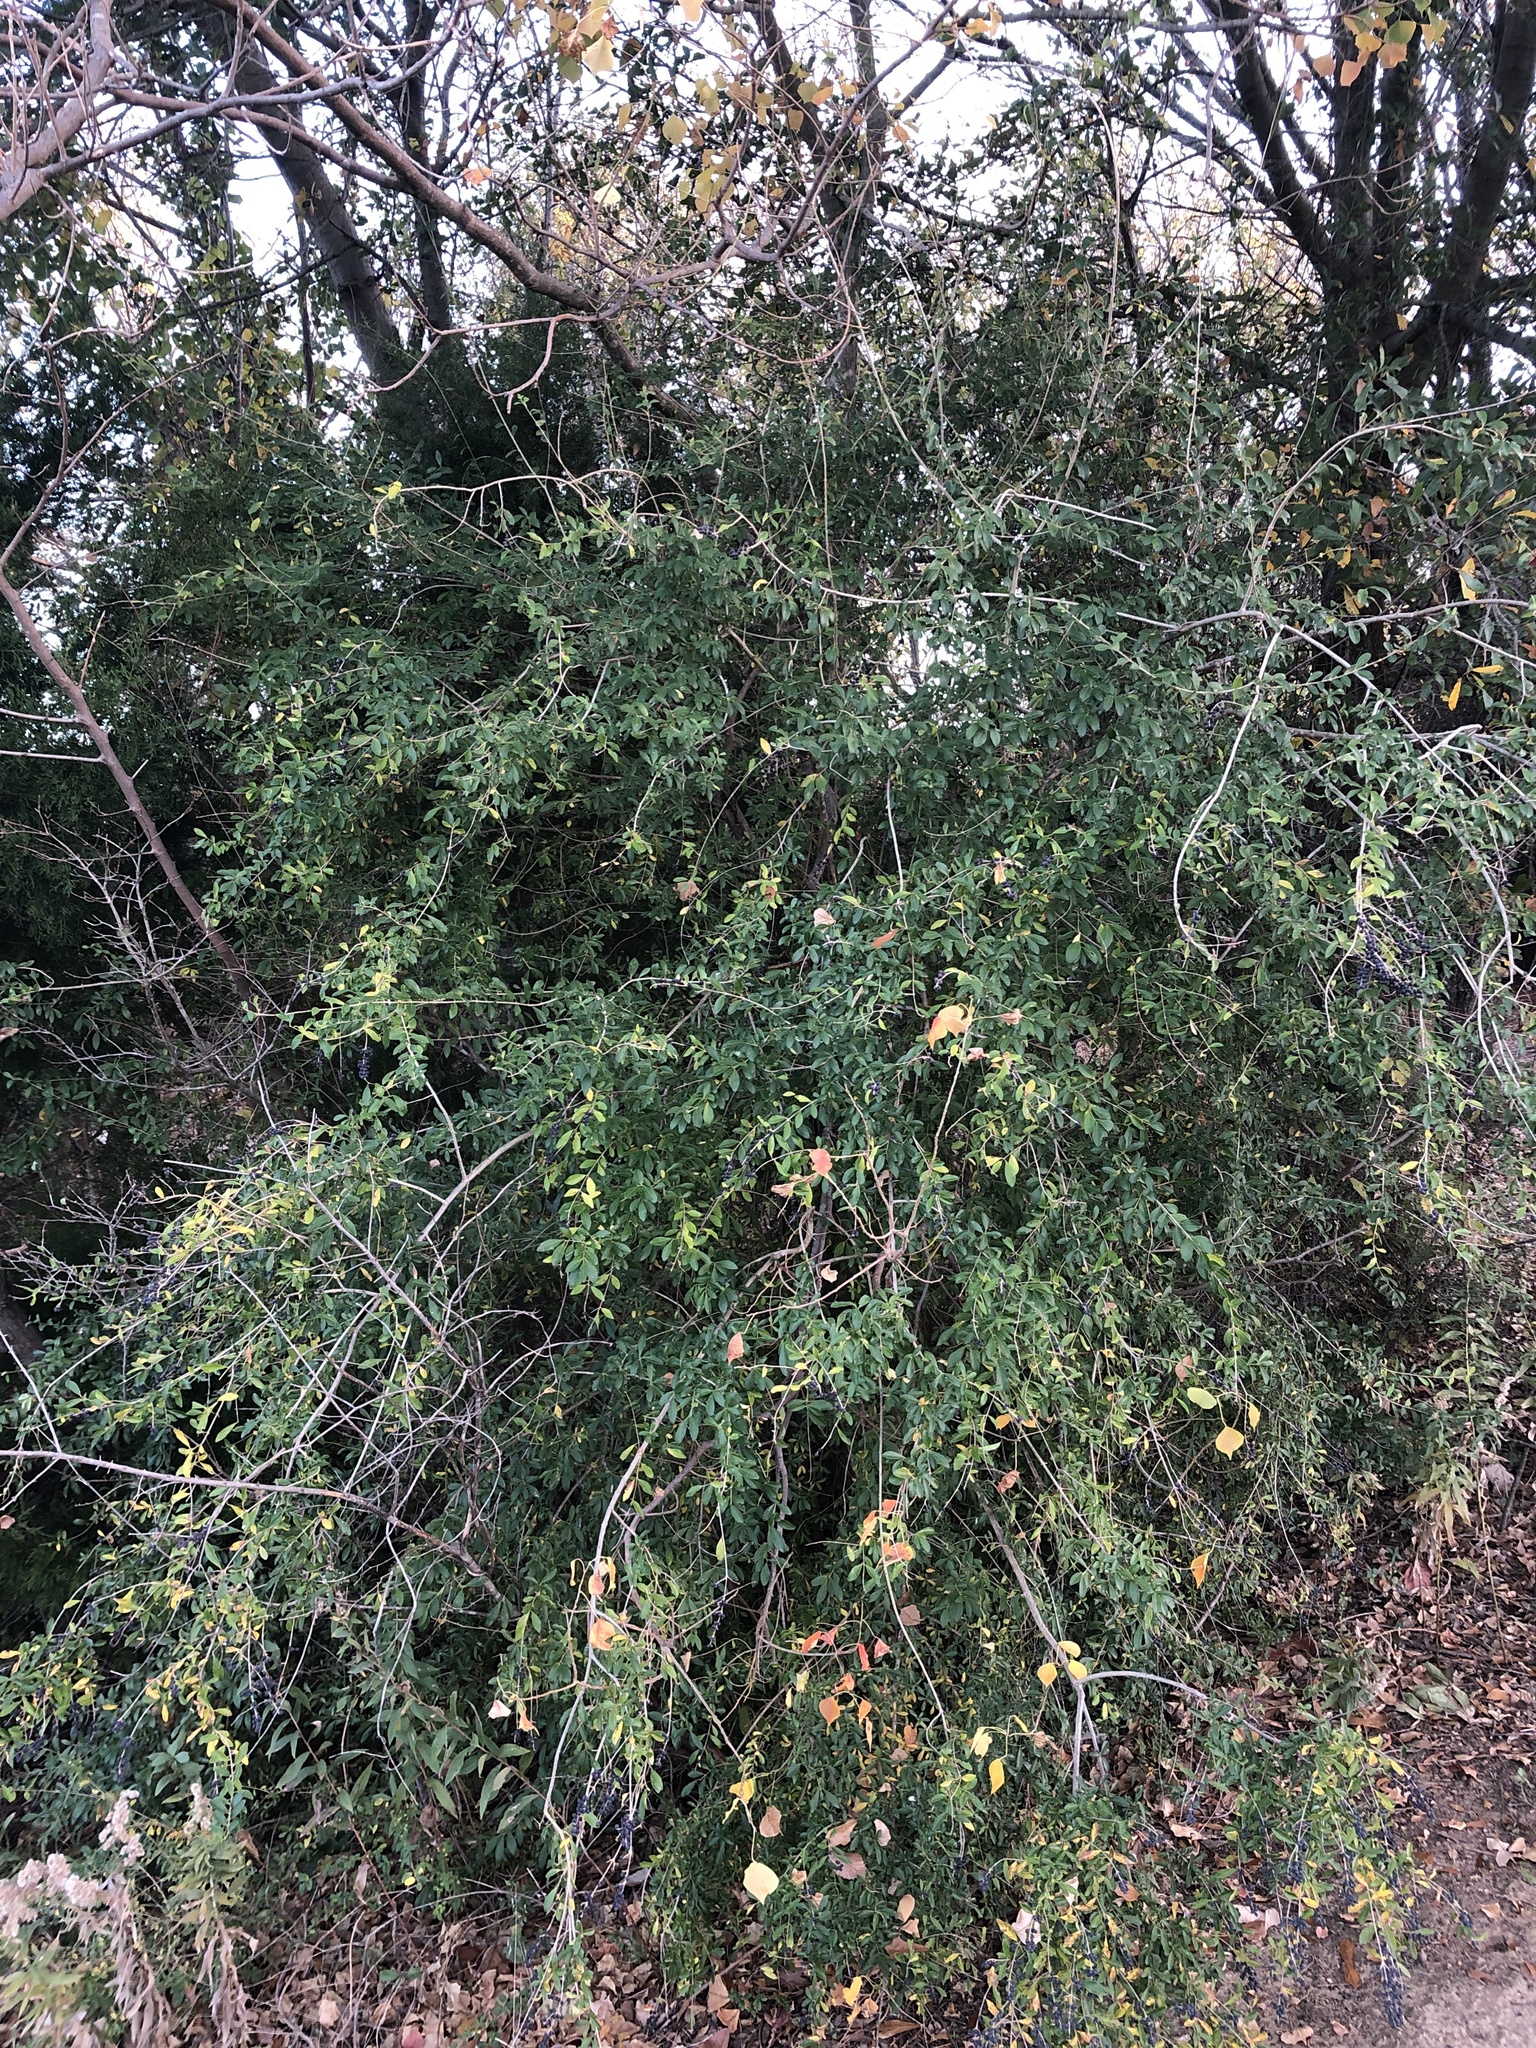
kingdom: Plantae
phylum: Tracheophyta
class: Magnoliopsida
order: Lamiales
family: Oleaceae
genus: Ligustrum
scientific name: Ligustrum quihoui
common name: Waxyleaf privet
